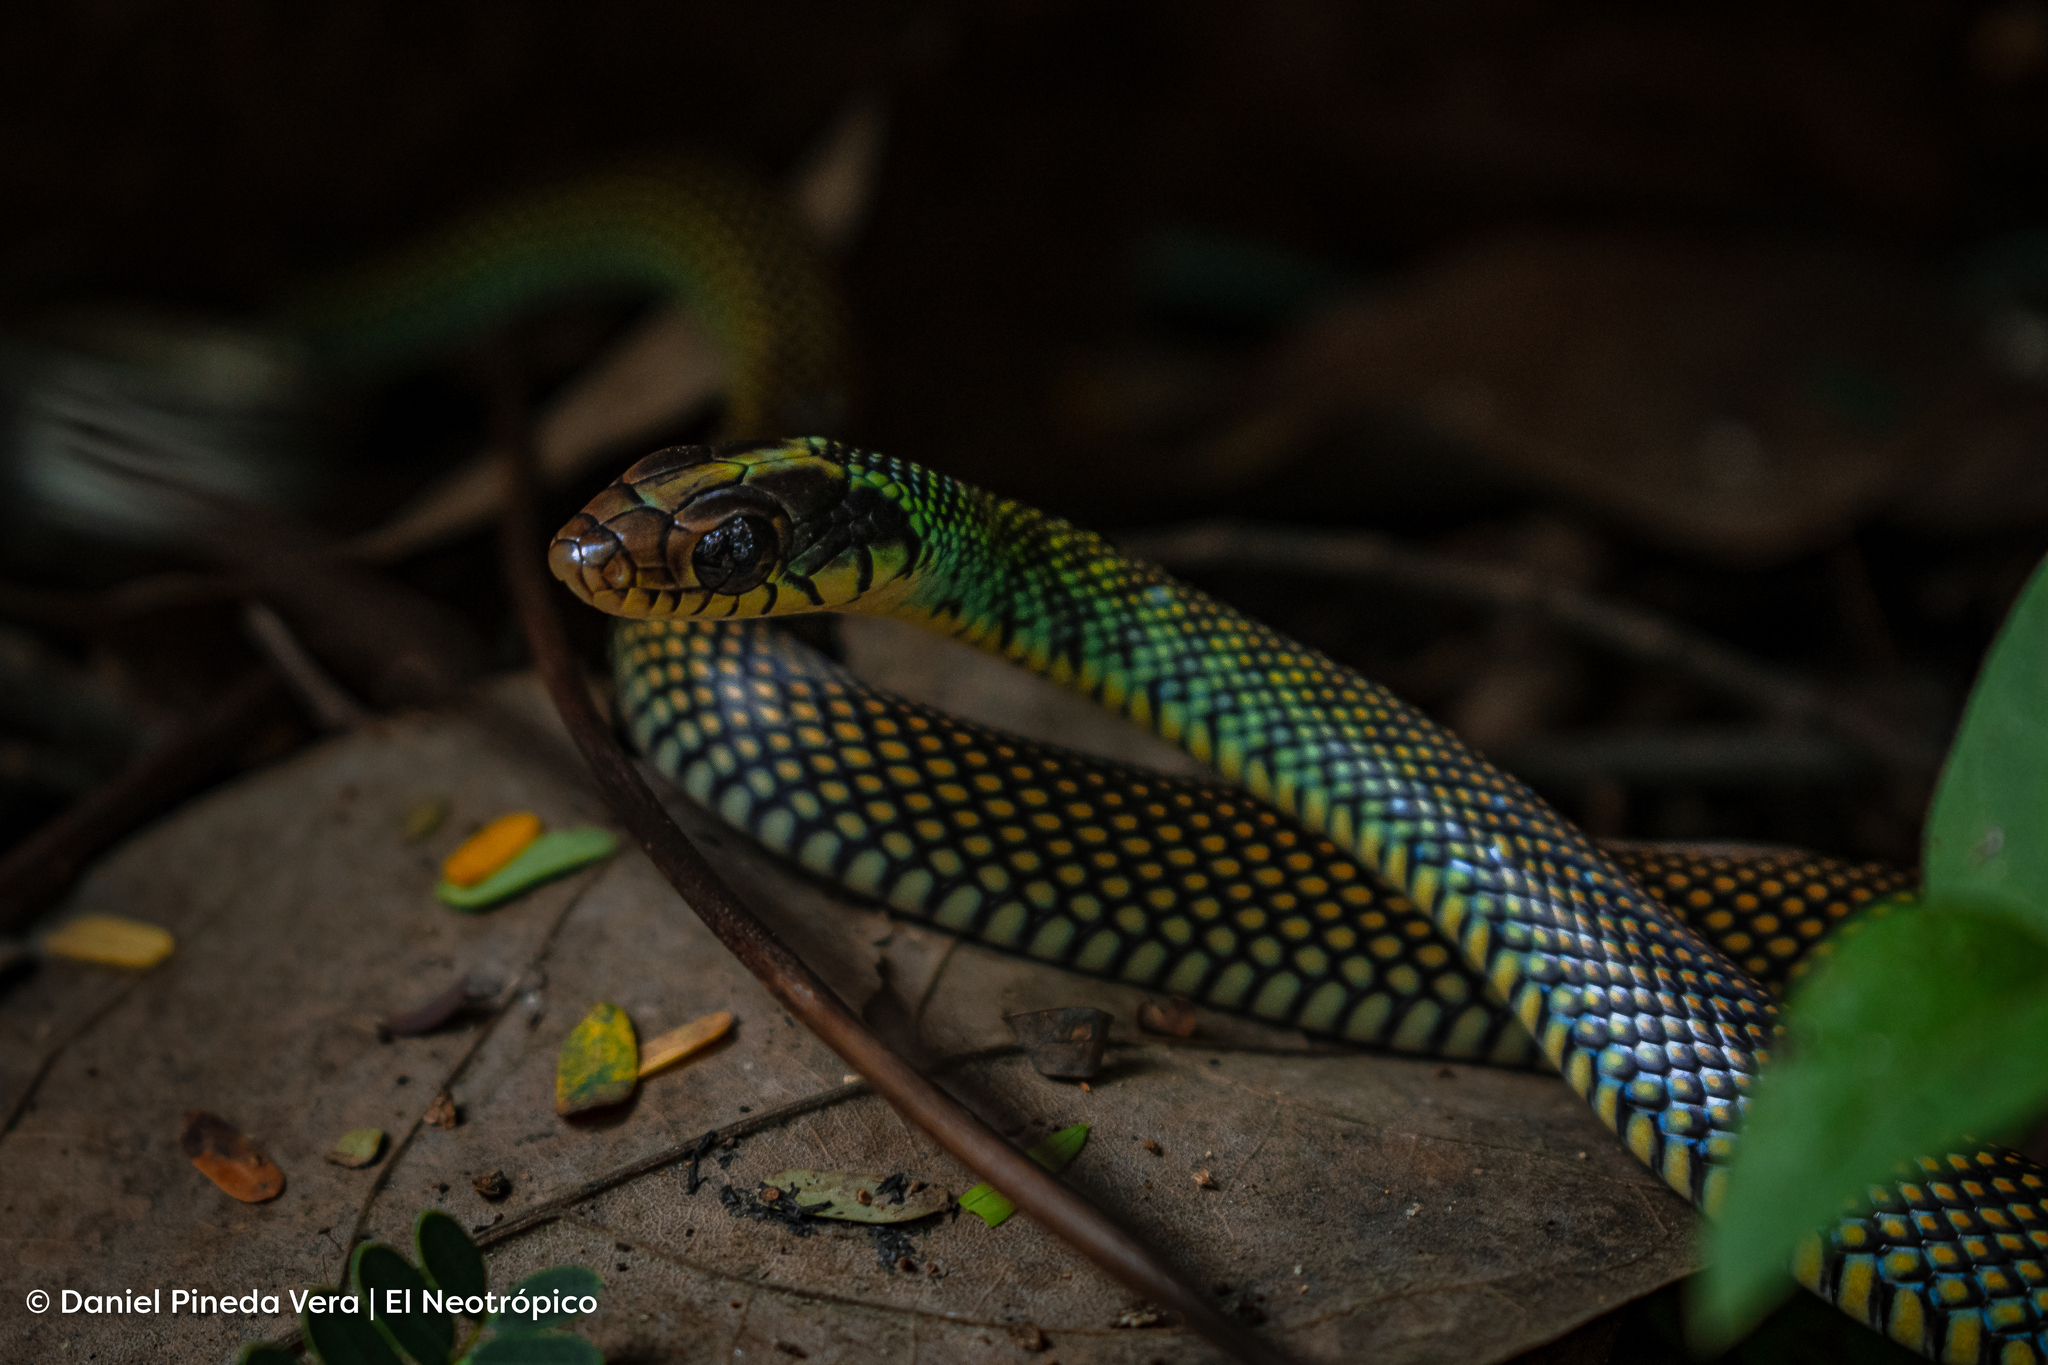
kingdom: Animalia
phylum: Chordata
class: Squamata
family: Colubridae
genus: Drymobius
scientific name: Drymobius margaritiferus
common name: Central american speckled racer
